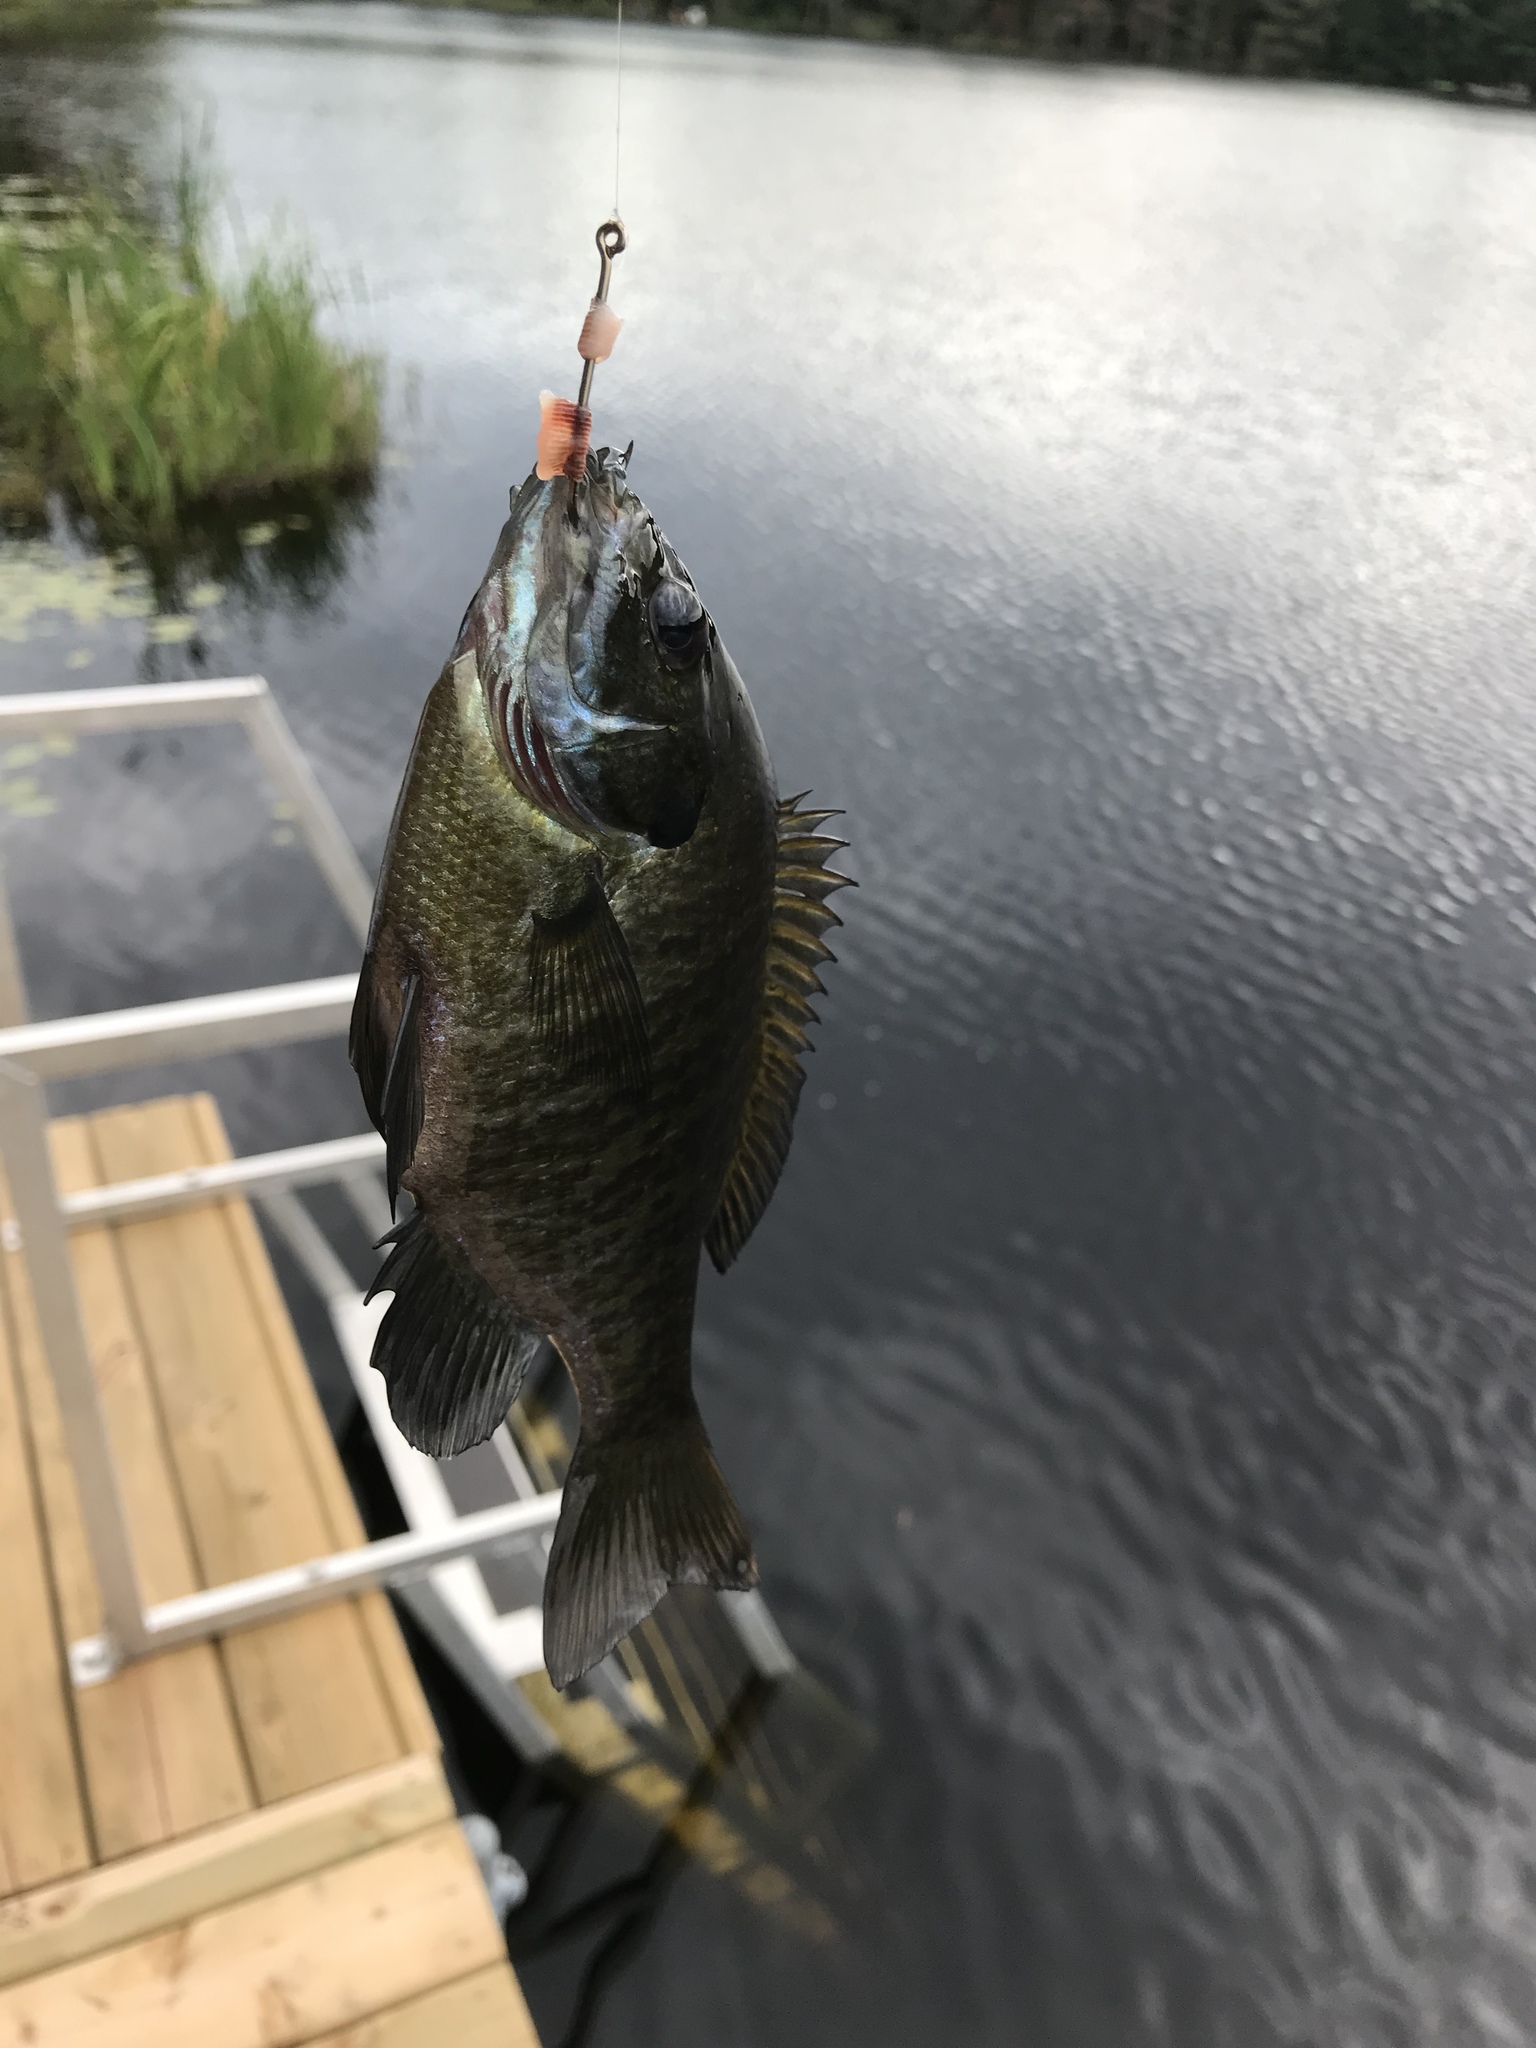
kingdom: Animalia
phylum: Chordata
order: Perciformes
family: Centrarchidae
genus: Lepomis
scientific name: Lepomis macrochirus
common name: Bluegill
